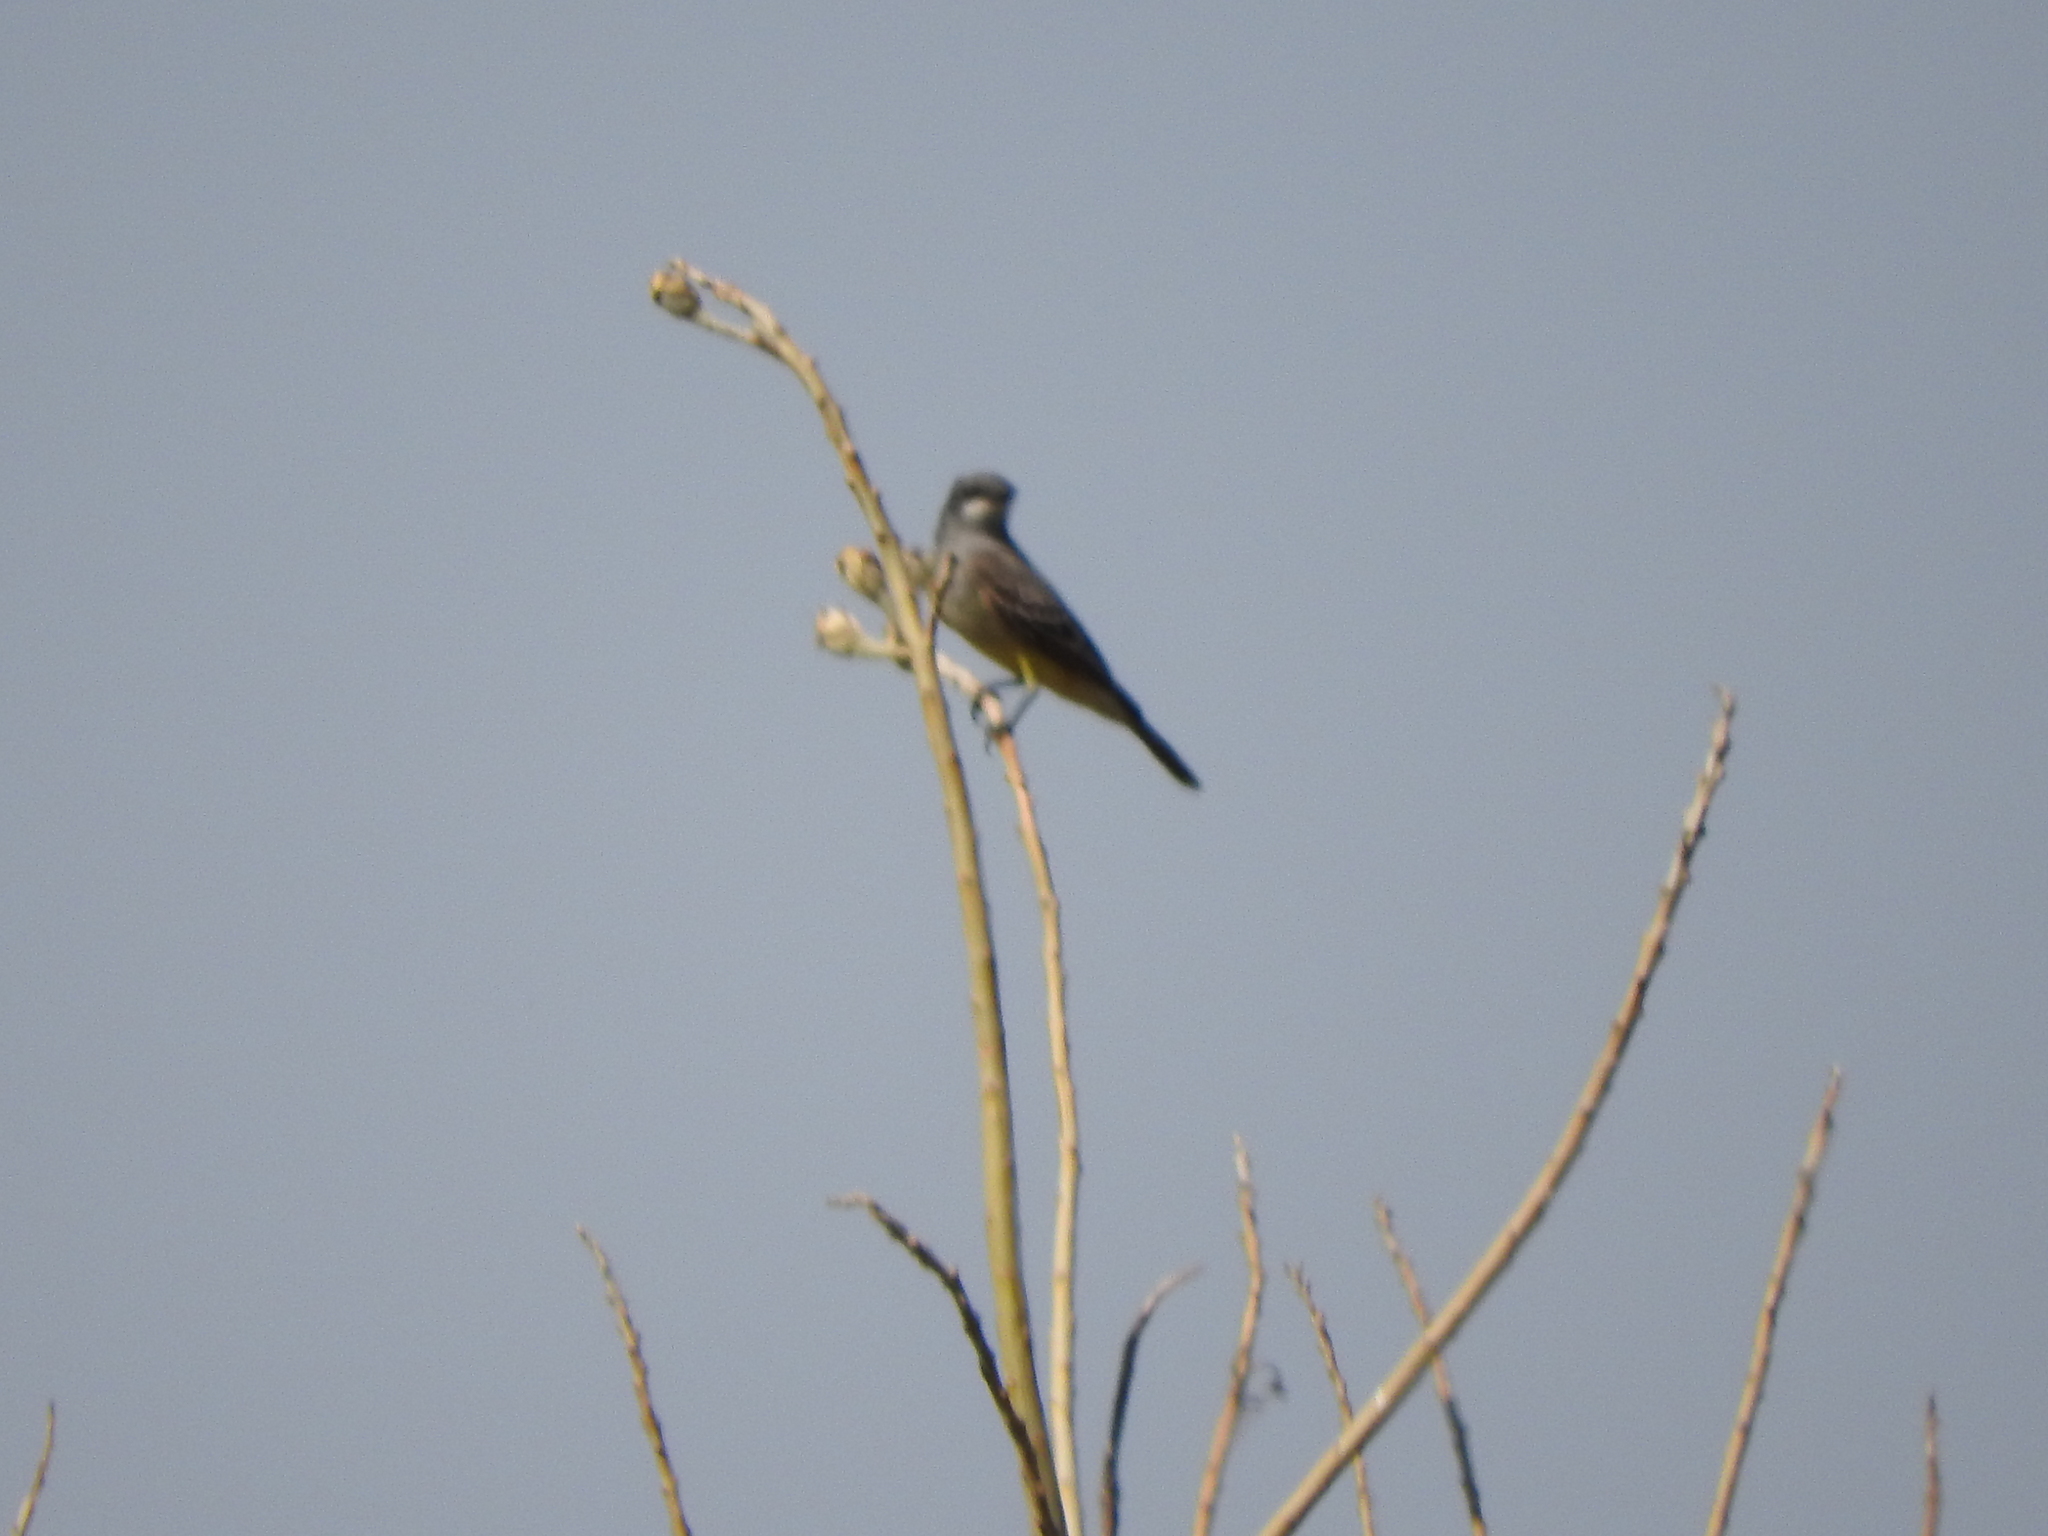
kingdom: Animalia
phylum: Chordata
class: Aves
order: Passeriformes
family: Tyrannidae
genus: Tyrannus
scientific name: Tyrannus vociferans
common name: Cassin's kingbird
